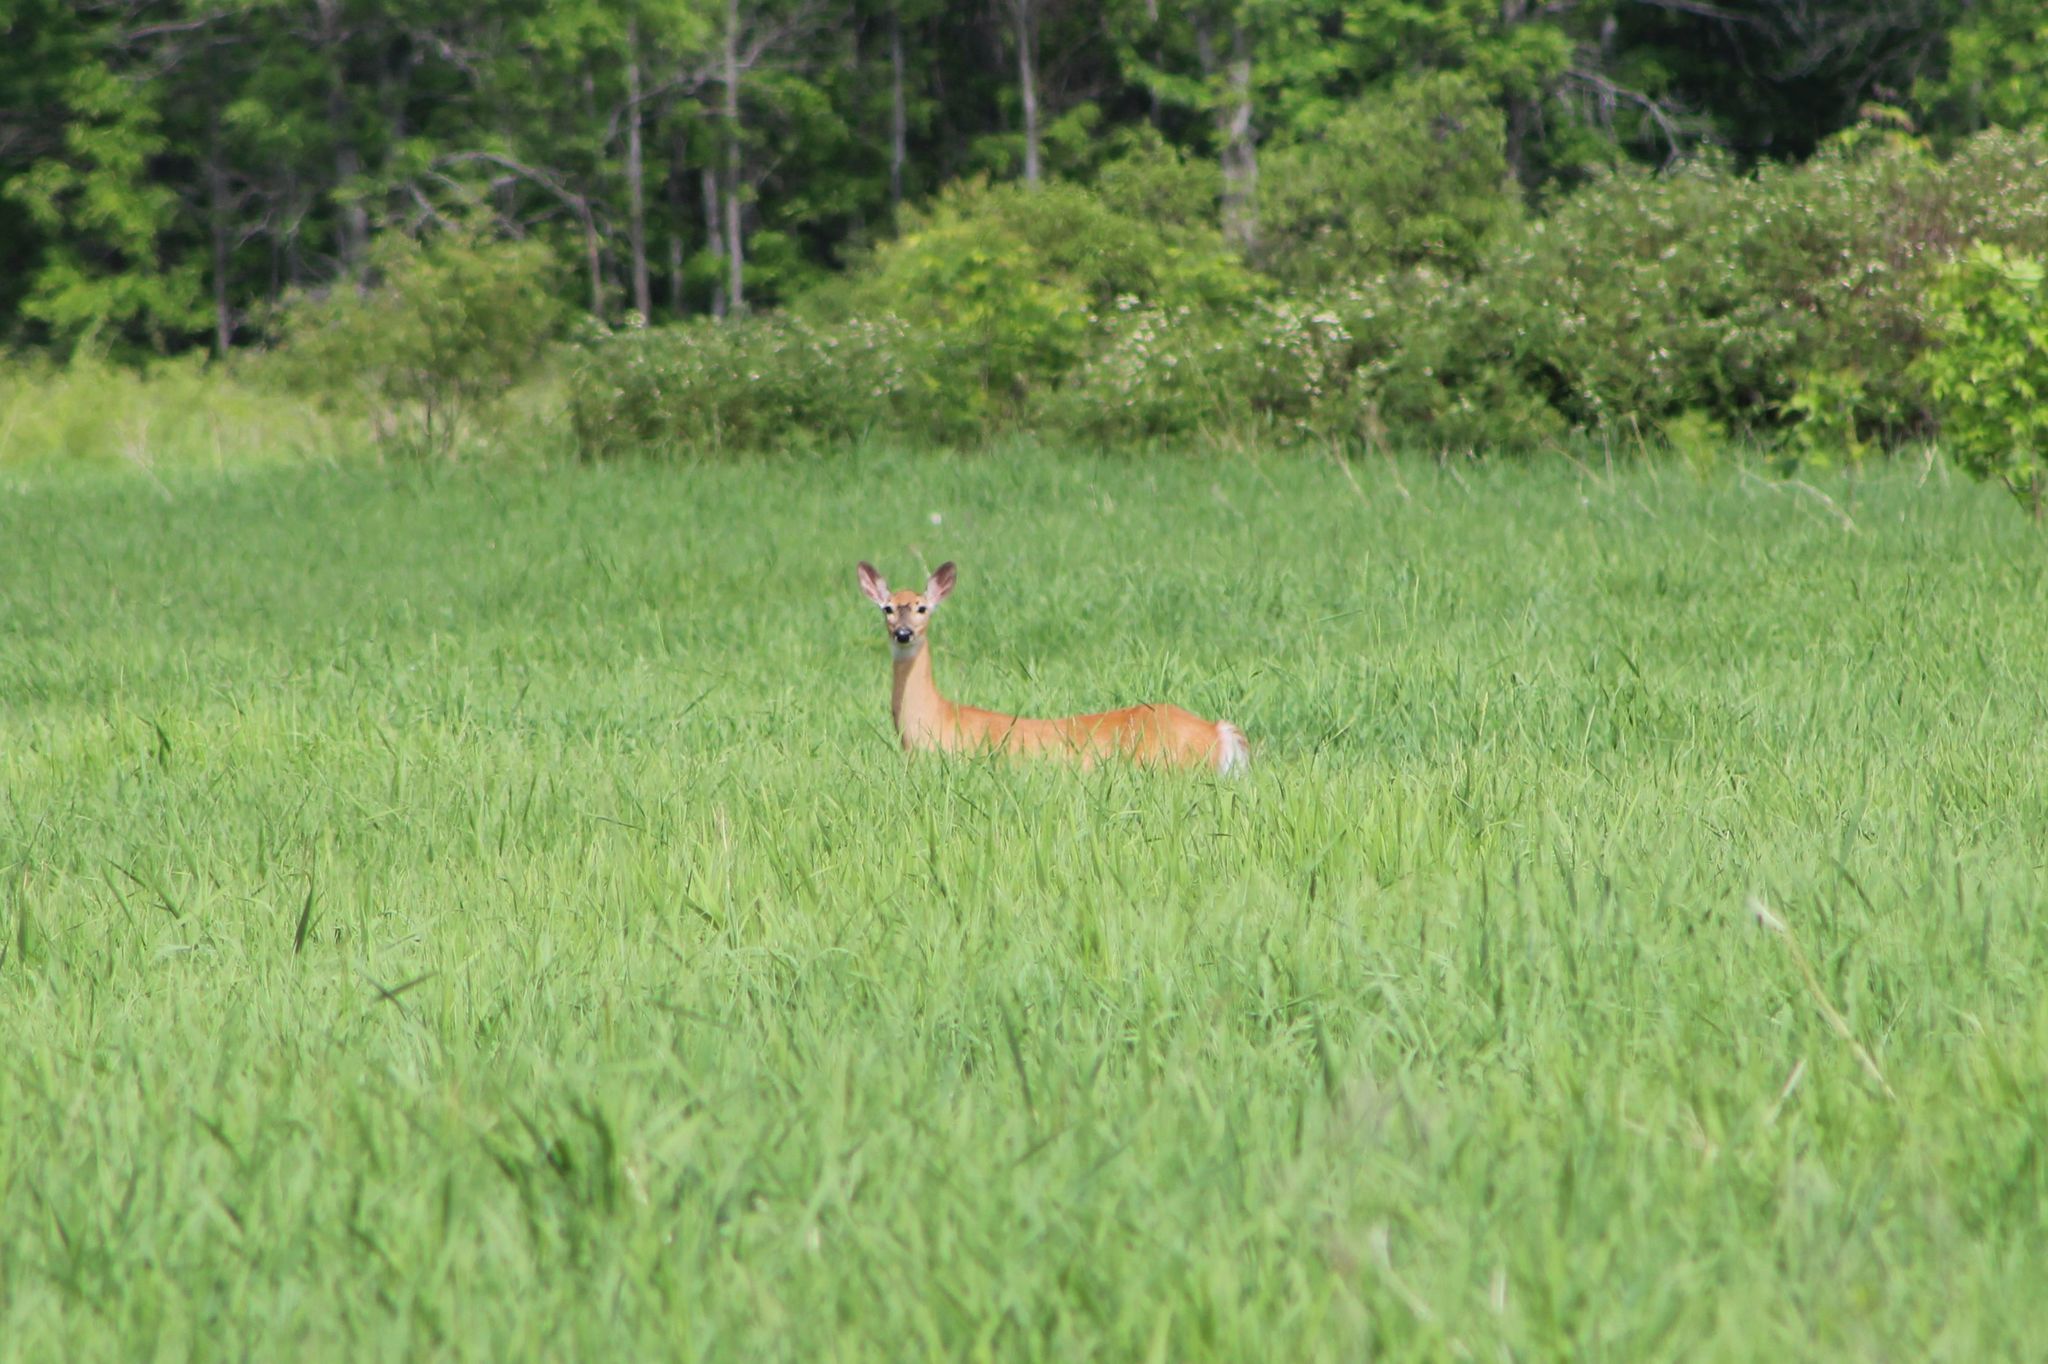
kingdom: Animalia
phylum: Chordata
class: Mammalia
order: Artiodactyla
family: Cervidae
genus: Odocoileus
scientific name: Odocoileus virginianus
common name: White-tailed deer
